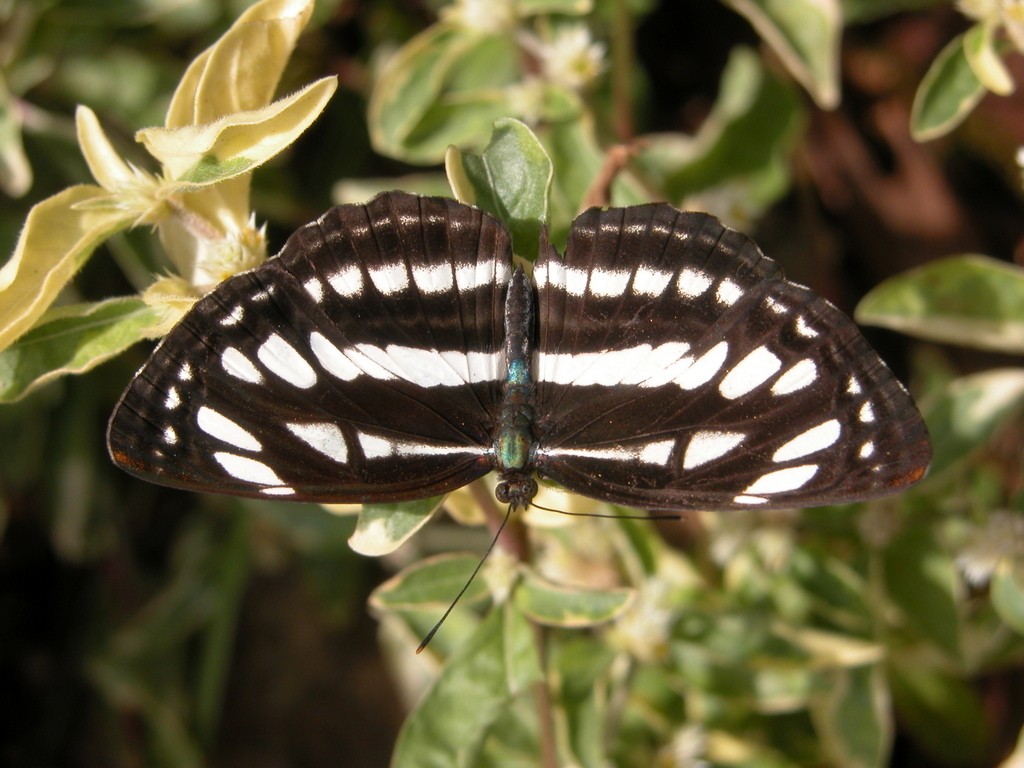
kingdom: Animalia
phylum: Arthropoda
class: Insecta
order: Lepidoptera
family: Nymphalidae
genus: Neptis
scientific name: Neptis hylas
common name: Common sailer
